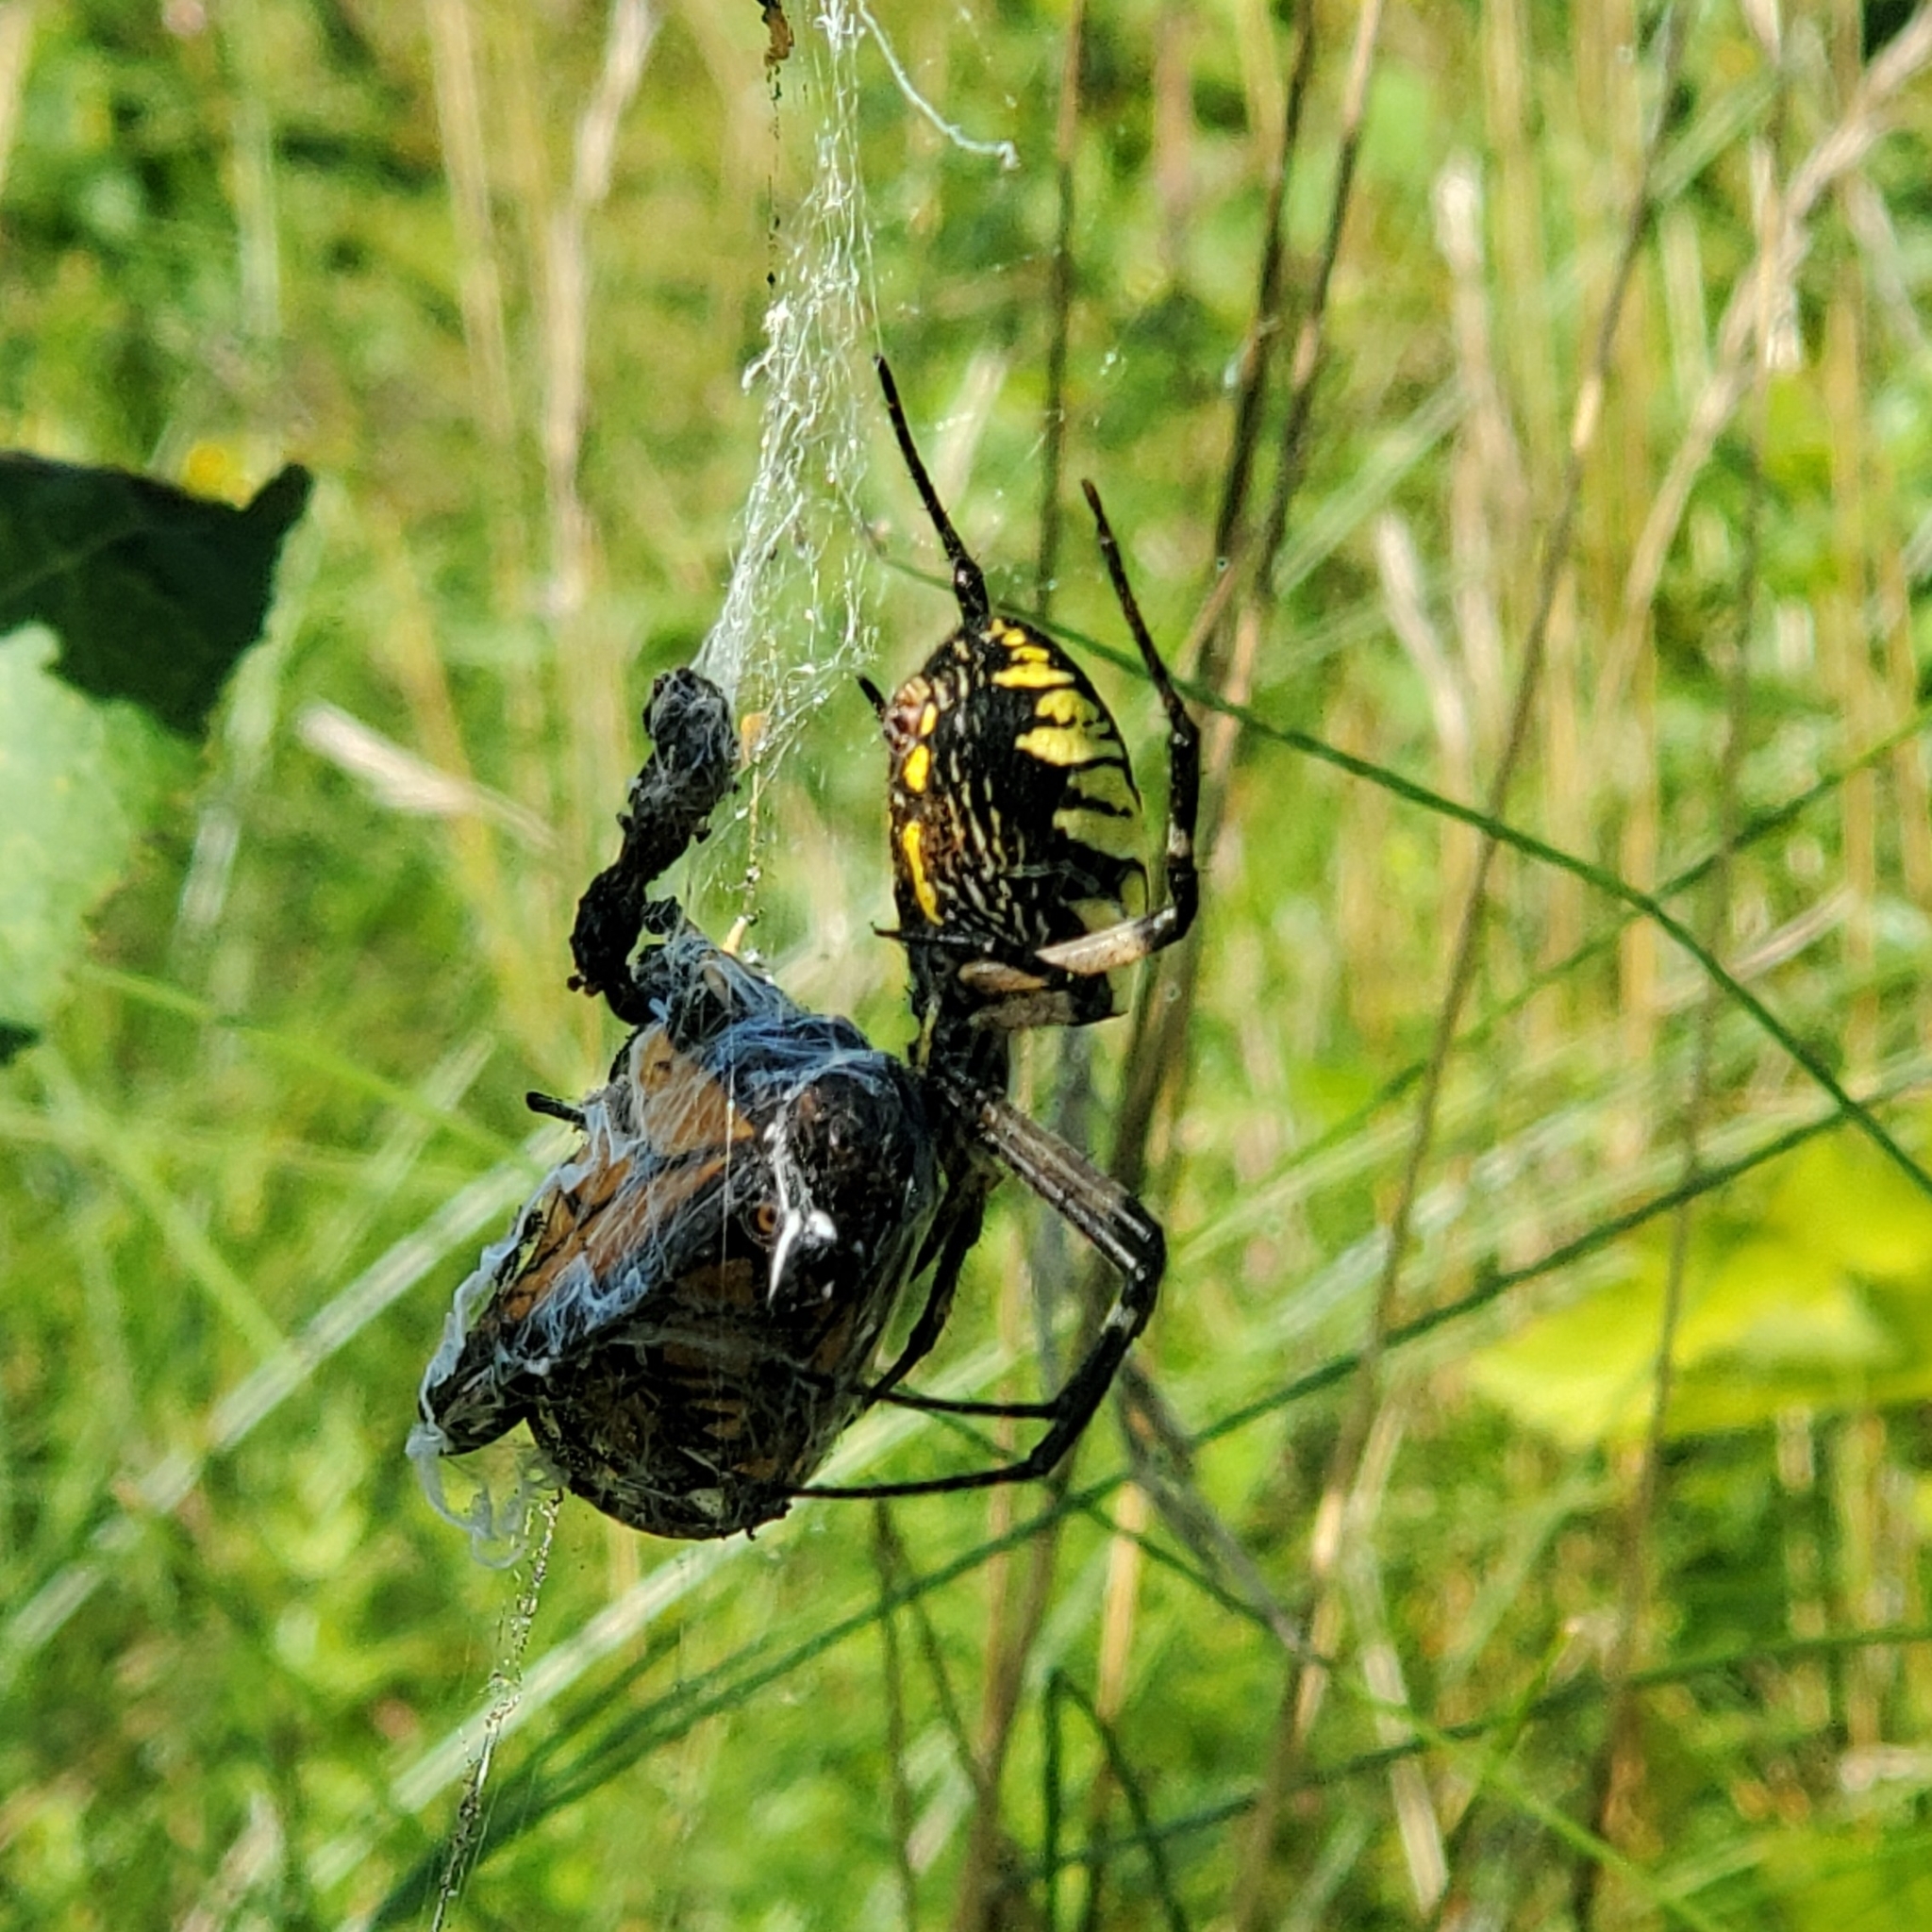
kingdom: Animalia
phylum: Arthropoda
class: Arachnida
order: Araneae
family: Araneidae
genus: Argiope
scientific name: Argiope aurantia
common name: Orb weavers
